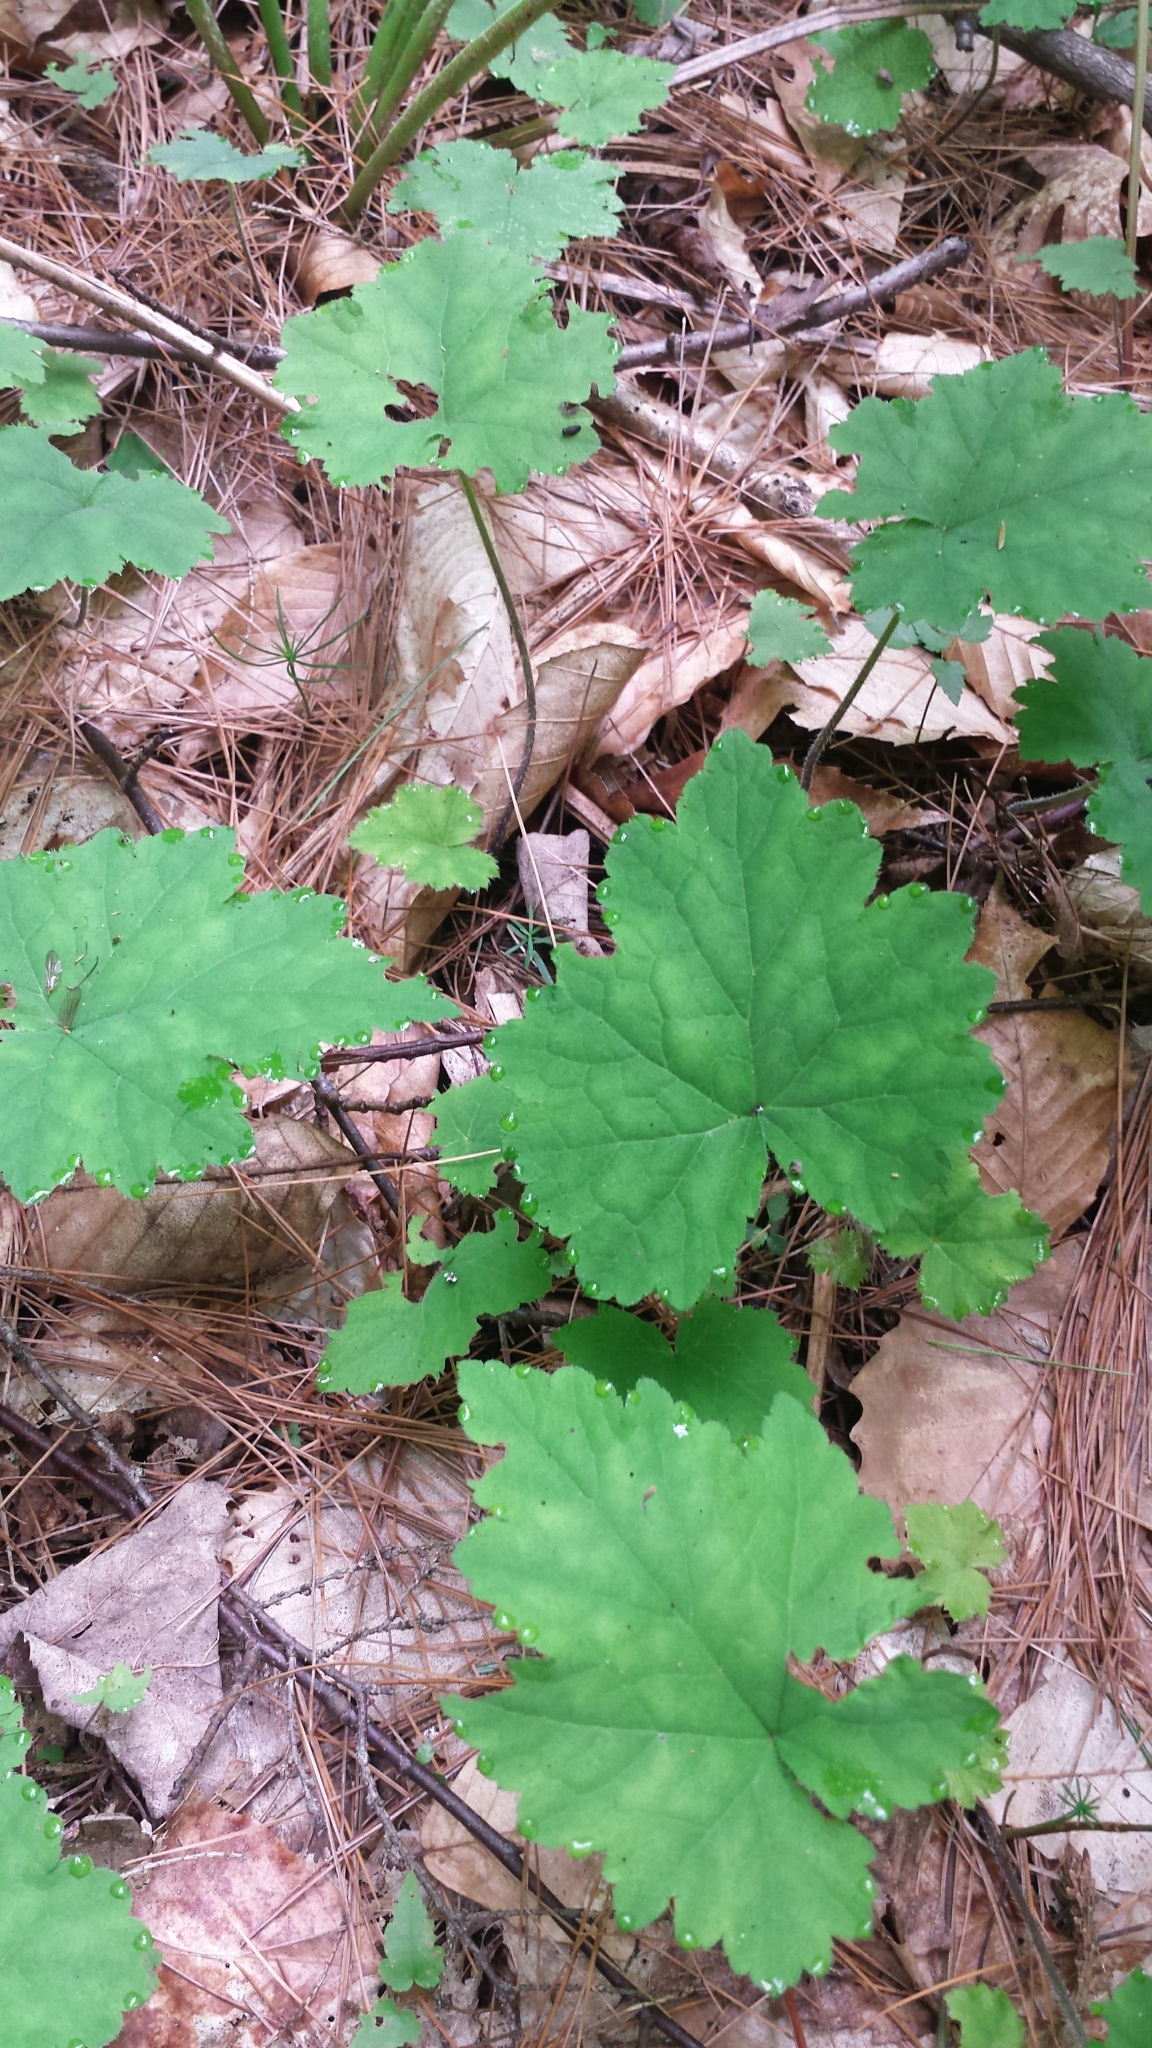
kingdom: Plantae
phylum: Tracheophyta
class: Magnoliopsida
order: Saxifragales
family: Saxifragaceae
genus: Tiarella
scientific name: Tiarella stolonifera
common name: Stoloniferous foamflower
